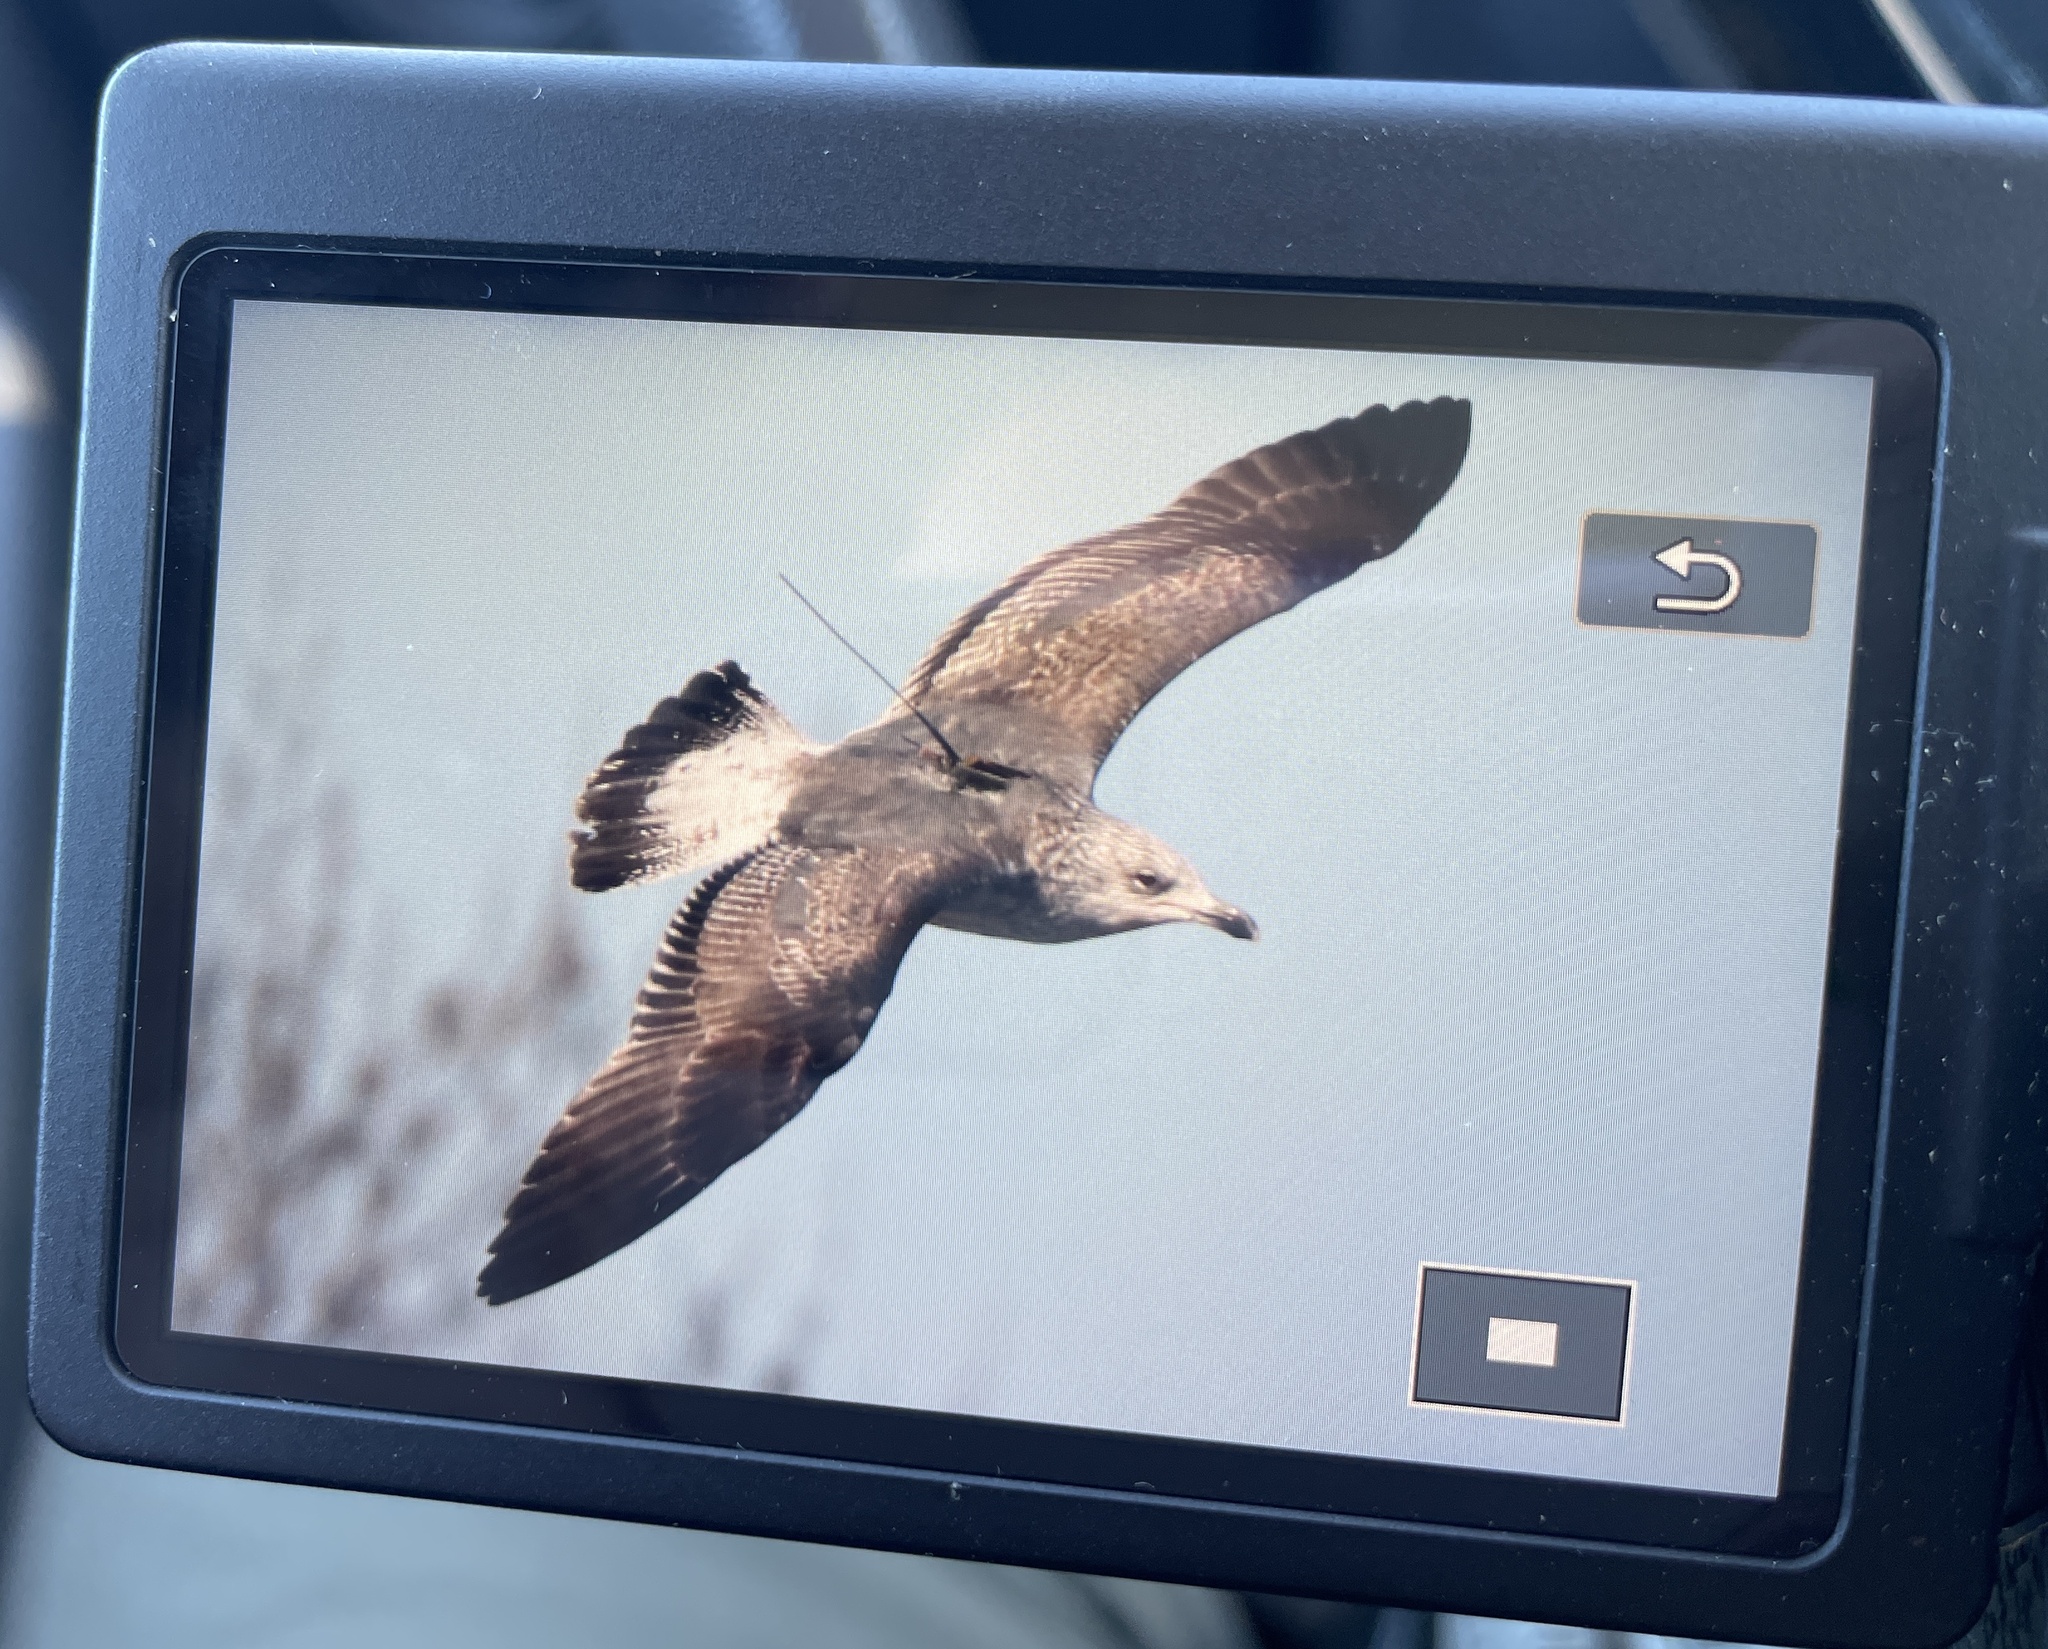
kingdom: Animalia
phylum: Chordata
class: Aves
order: Charadriiformes
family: Laridae
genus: Larus
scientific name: Larus fuscus
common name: Lesser black-backed gull
